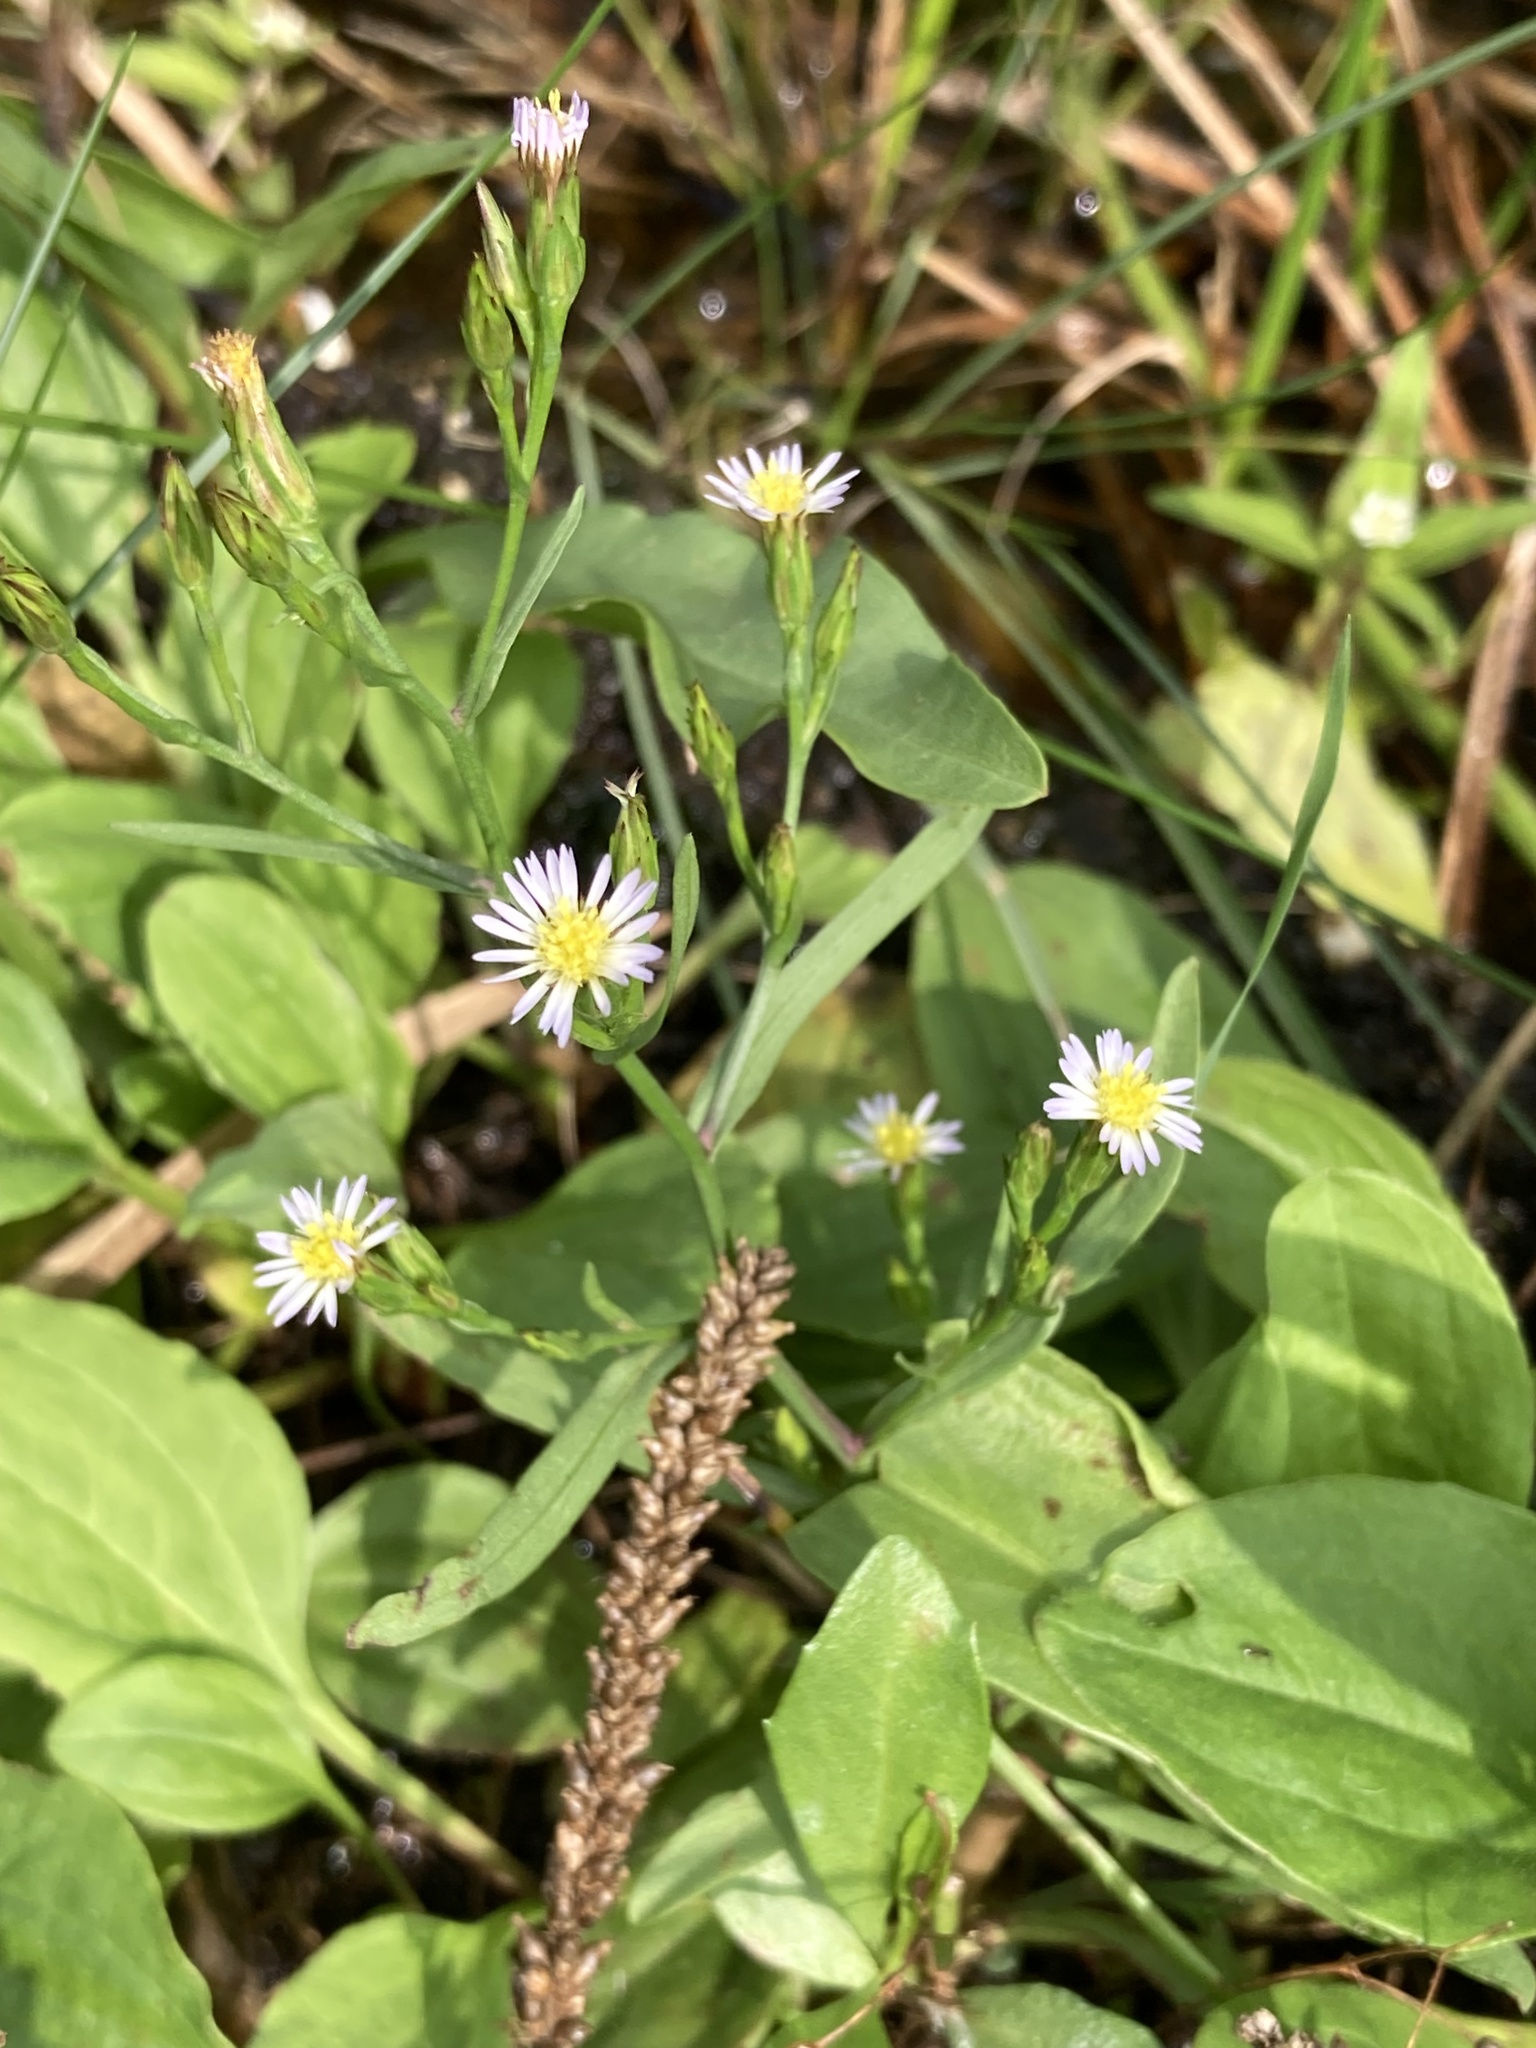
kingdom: Plantae
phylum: Tracheophyta
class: Magnoliopsida
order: Asterales
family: Asteraceae
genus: Symphyotrichum
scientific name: Symphyotrichum subulatum
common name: Annual saltmarsh aster
